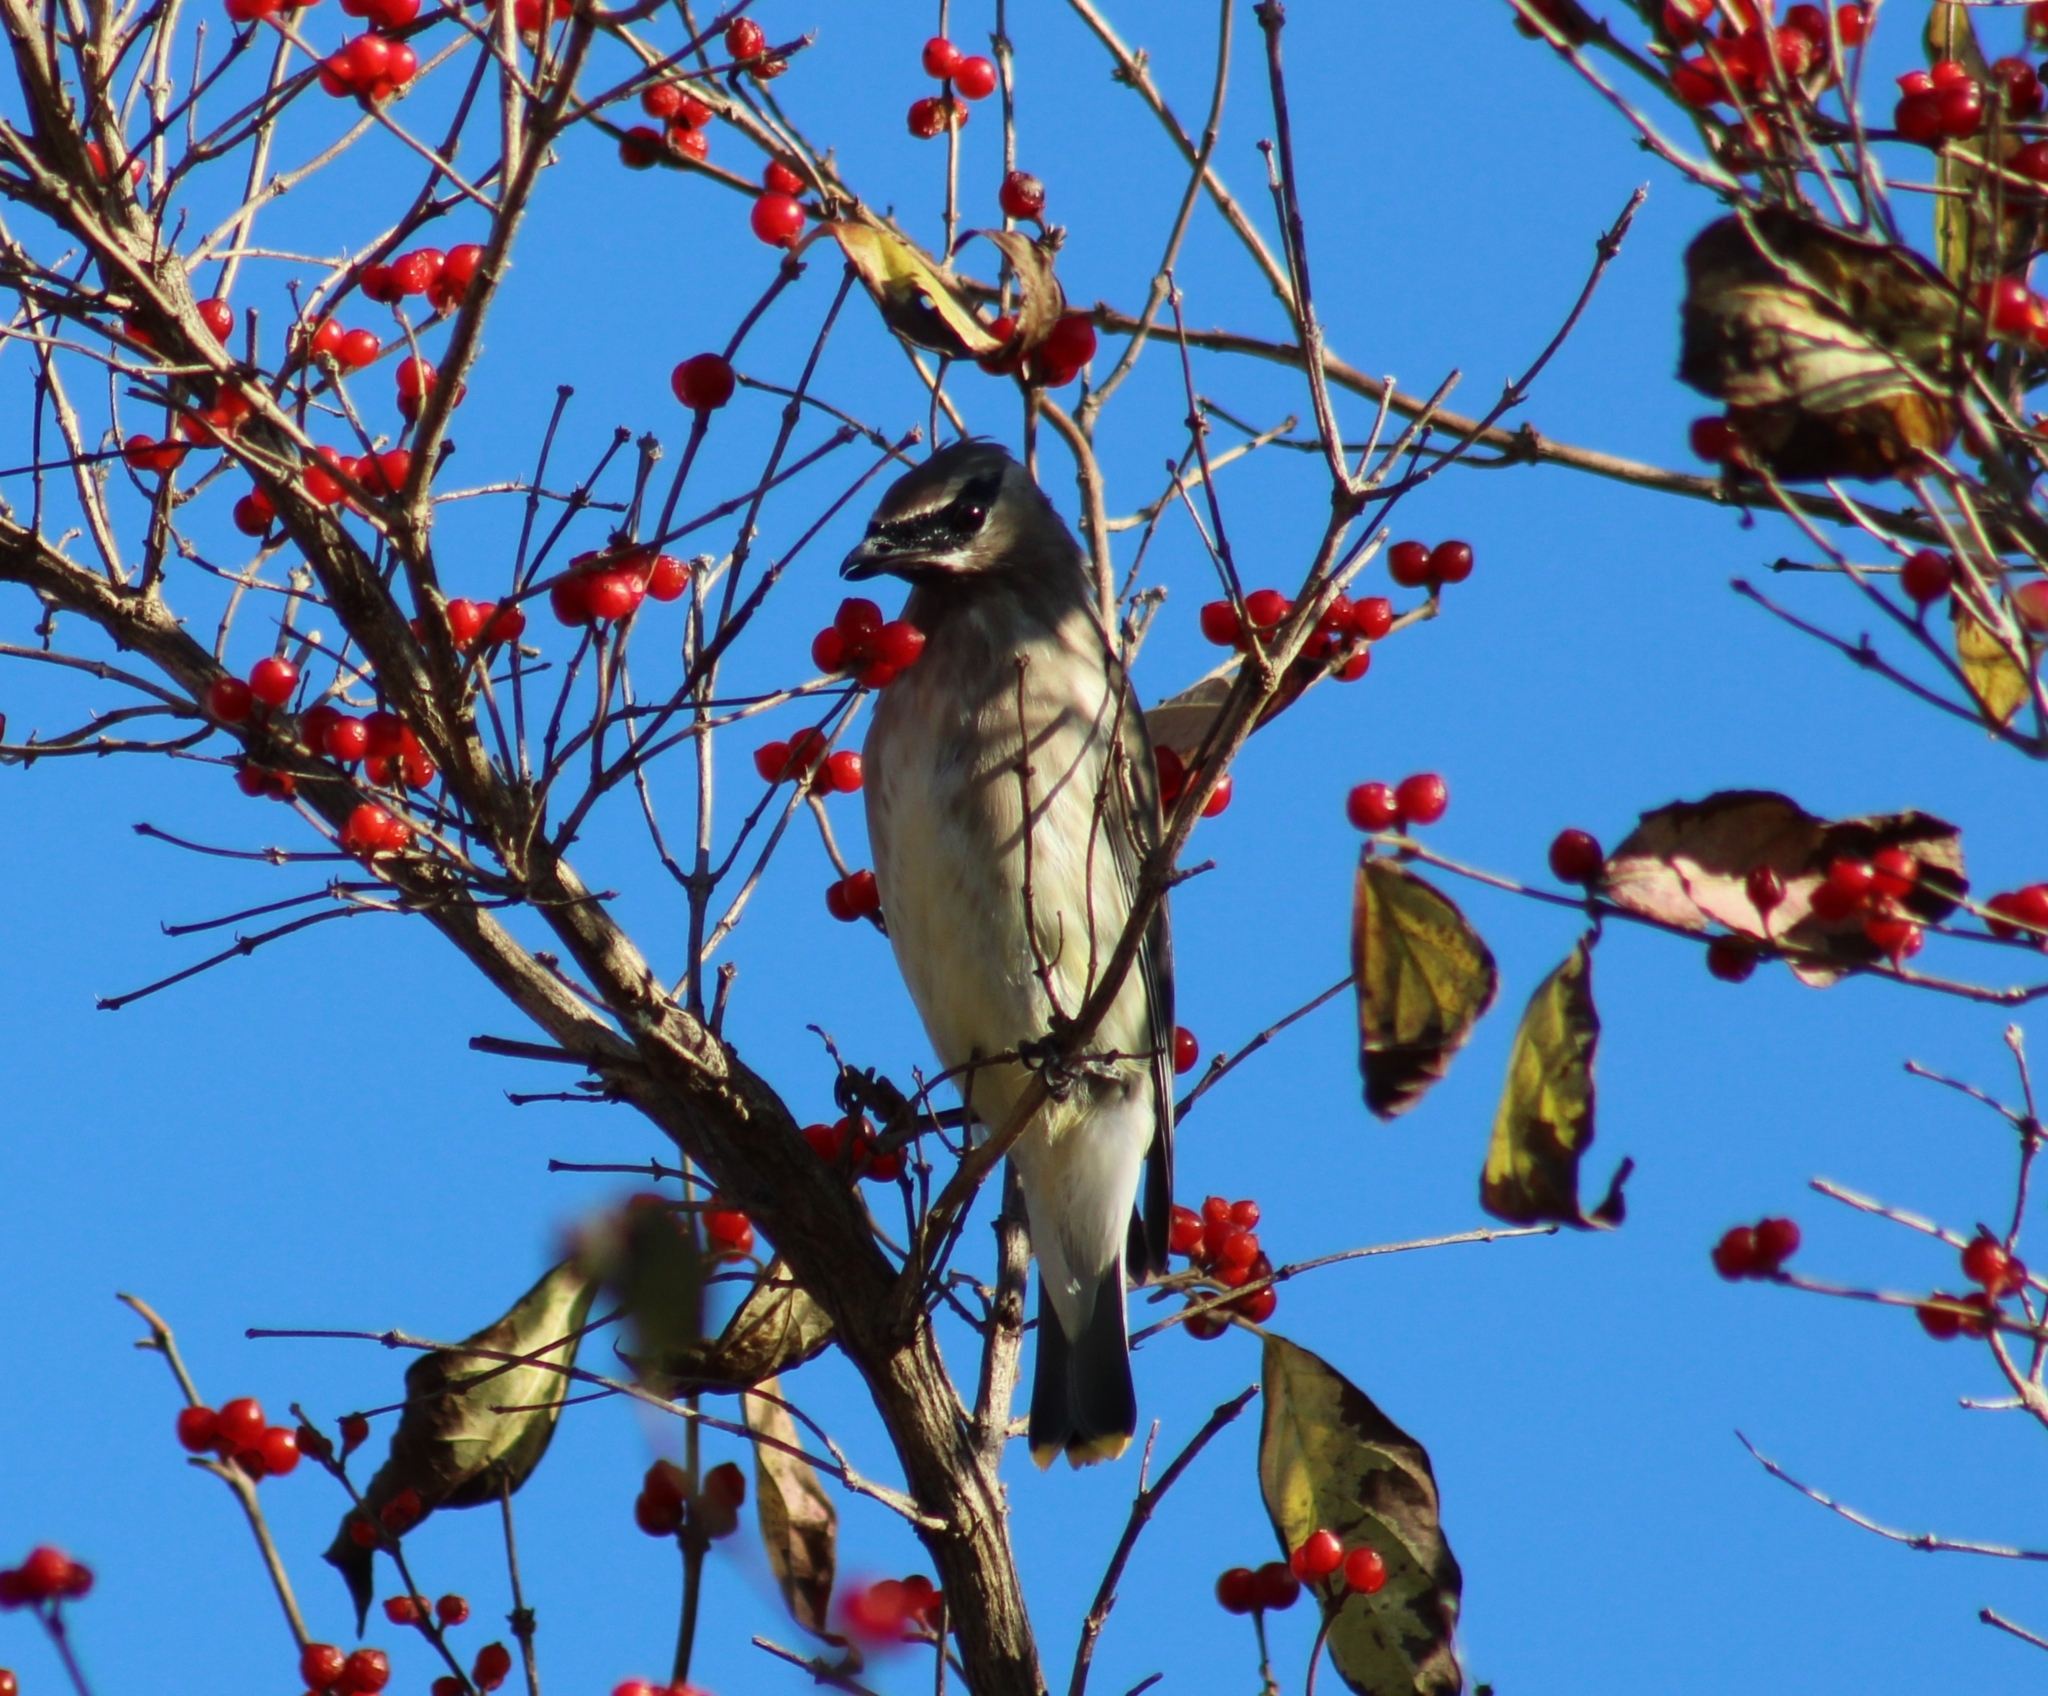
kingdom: Animalia
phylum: Chordata
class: Aves
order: Passeriformes
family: Bombycillidae
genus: Bombycilla
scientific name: Bombycilla cedrorum
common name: Cedar waxwing
